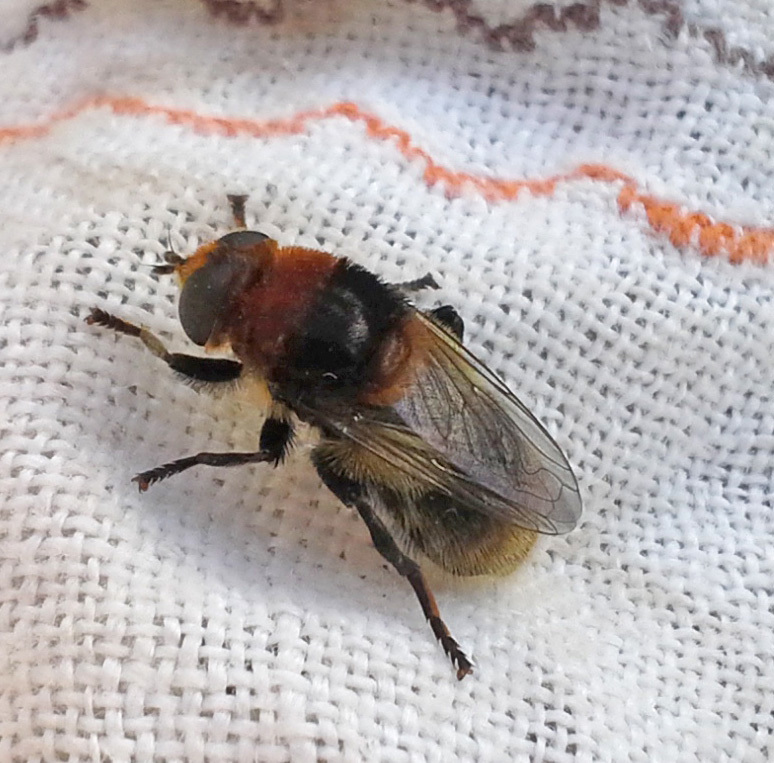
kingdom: Animalia
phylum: Arthropoda
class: Insecta
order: Diptera
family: Syrphidae
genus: Merodon
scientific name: Merodon equestris
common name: Greater bulb-fly
